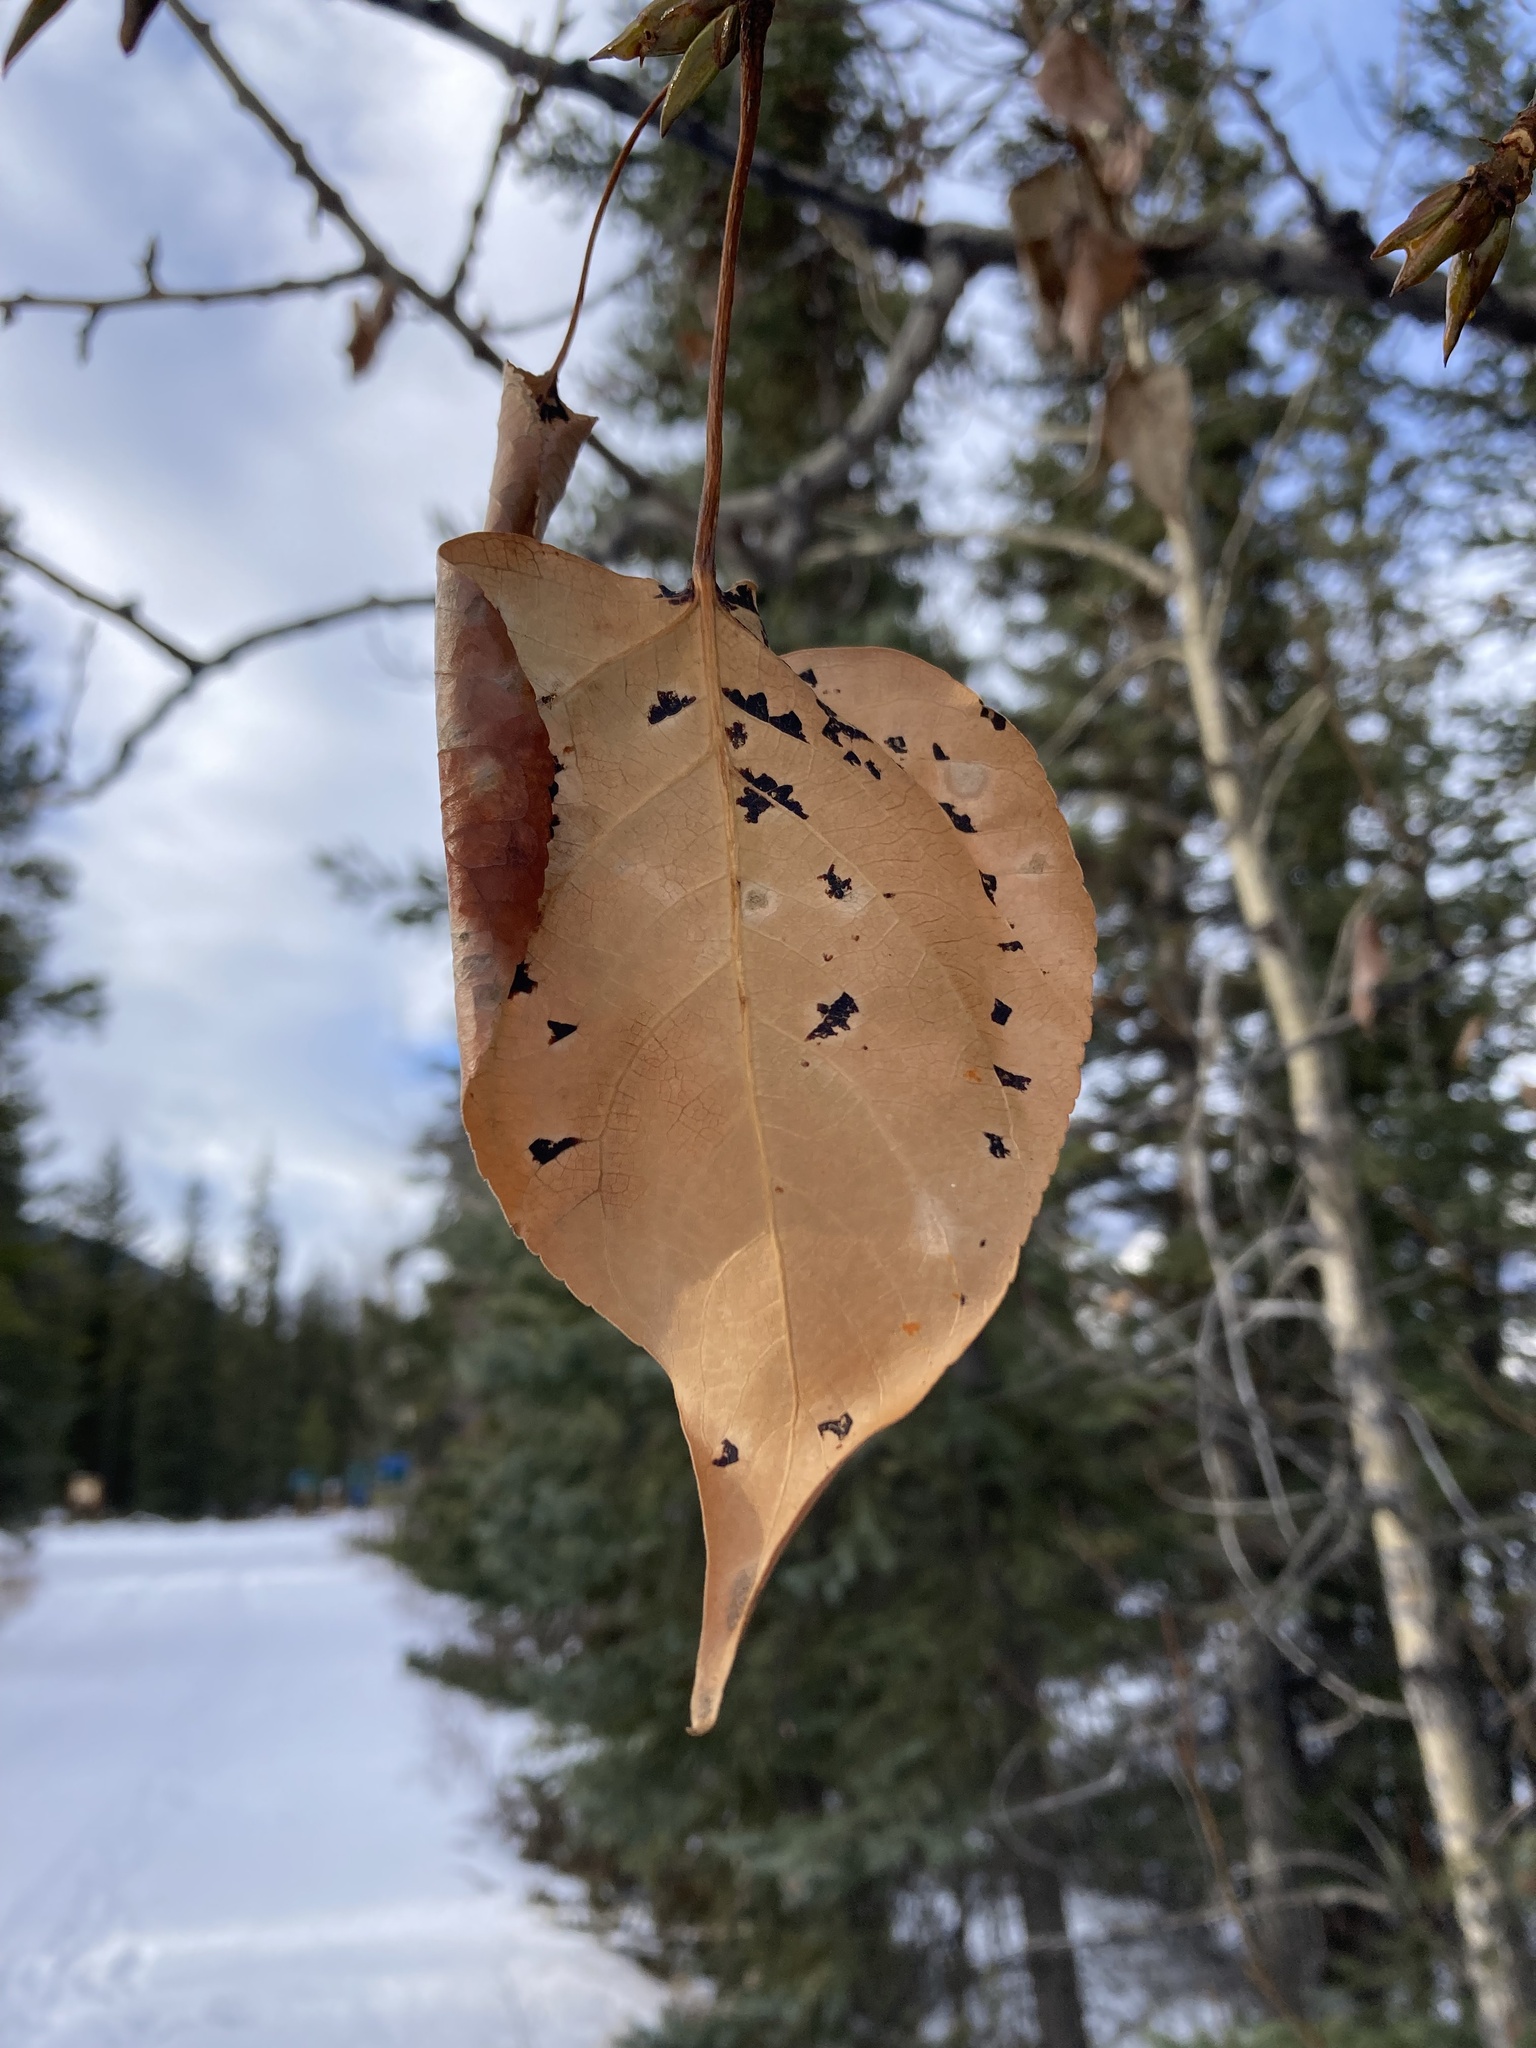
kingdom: Plantae
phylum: Tracheophyta
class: Magnoliopsida
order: Malpighiales
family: Salicaceae
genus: Populus
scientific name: Populus balsamifera
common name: Balsam poplar
